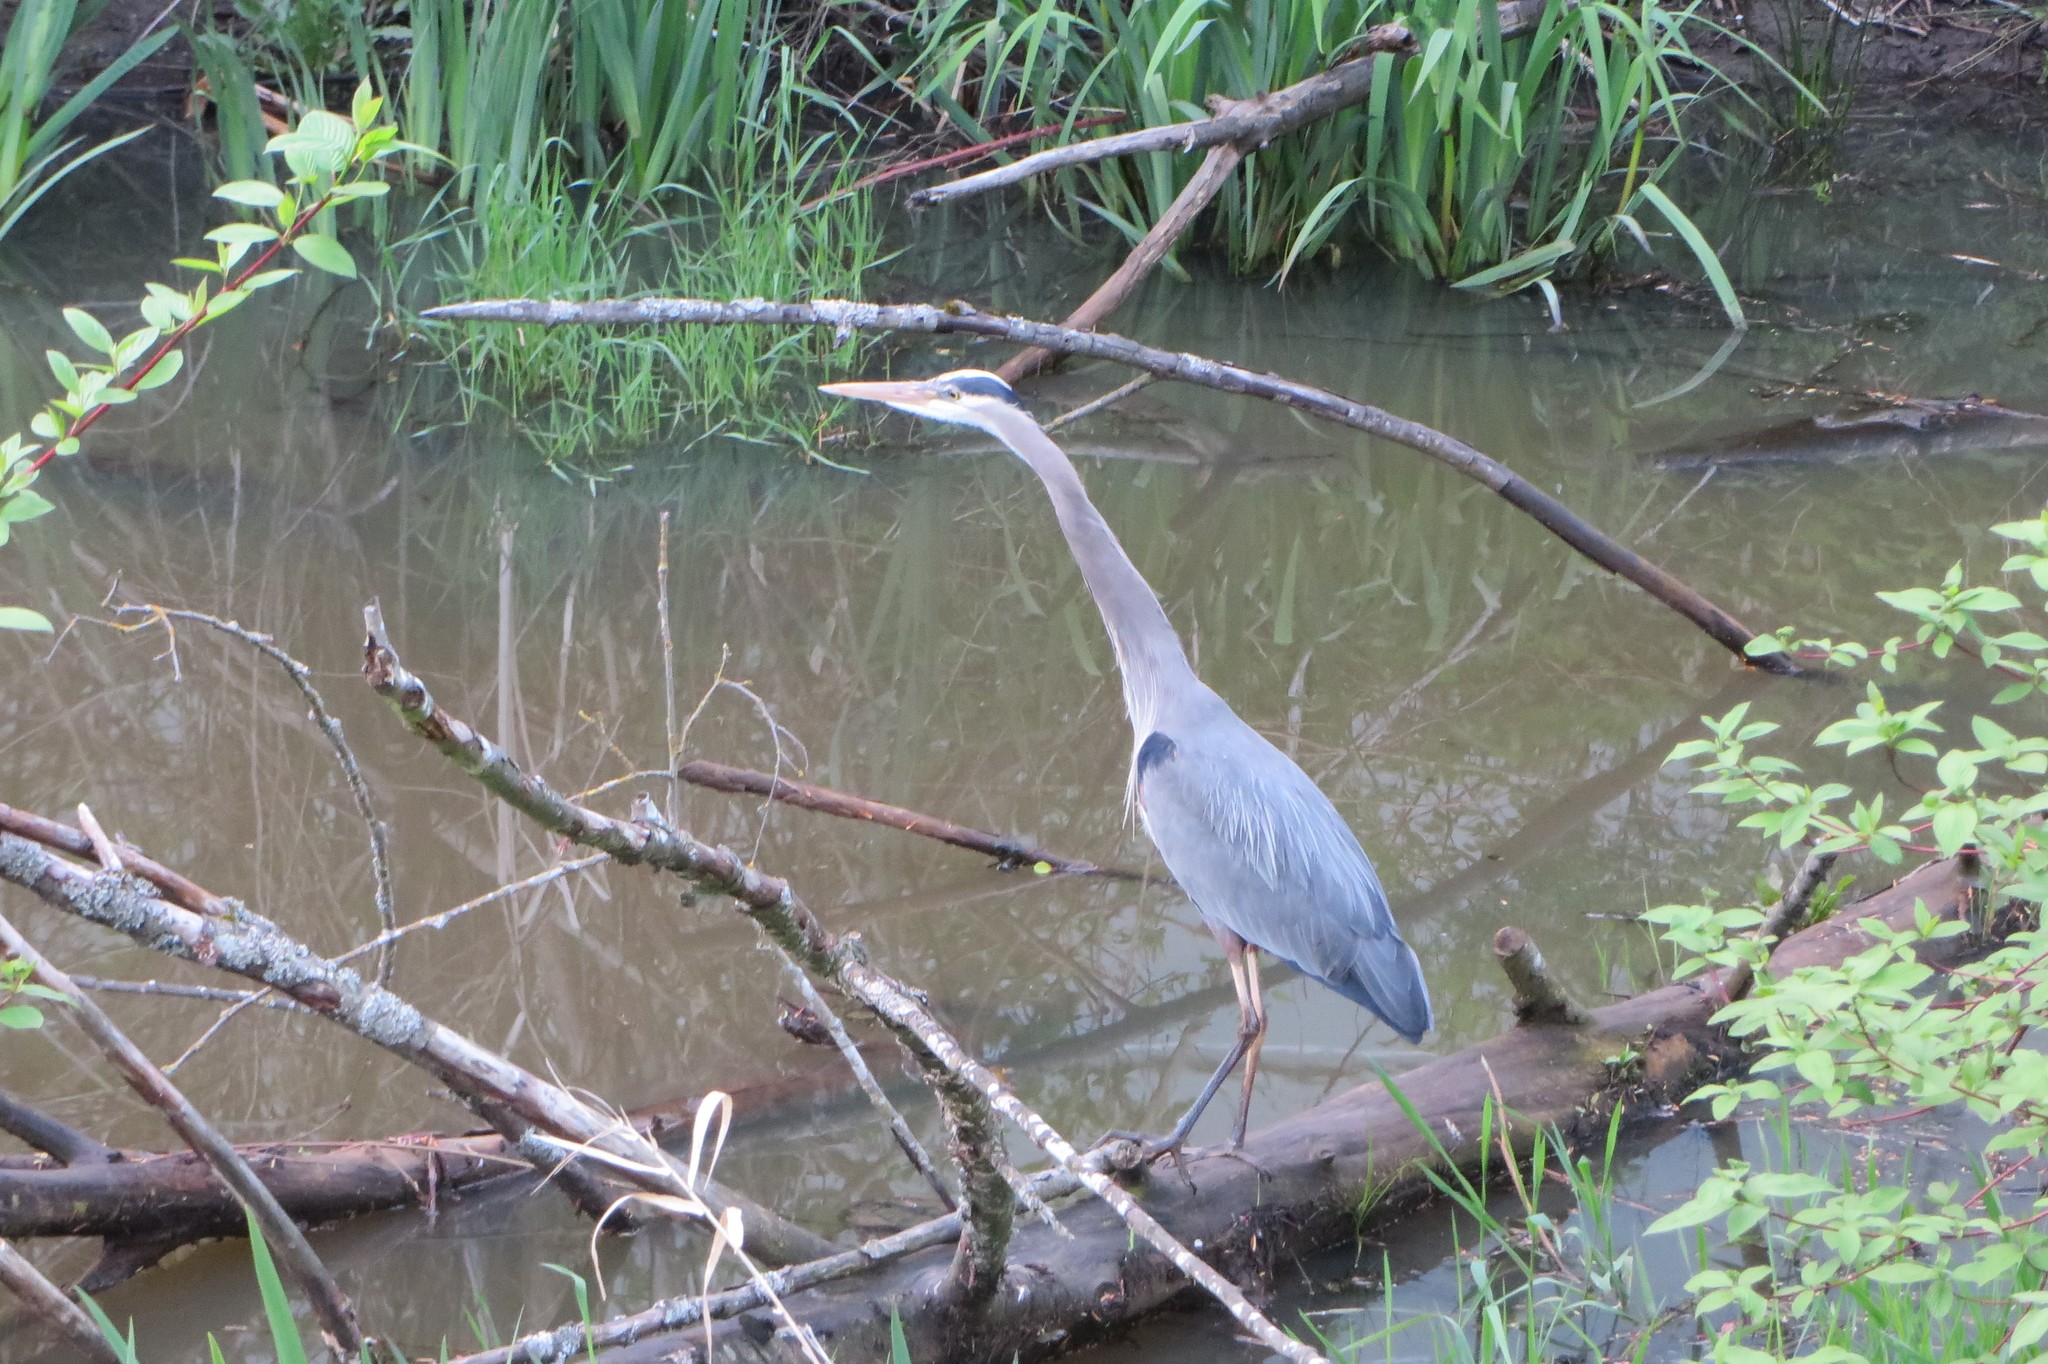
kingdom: Animalia
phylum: Chordata
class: Aves
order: Pelecaniformes
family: Ardeidae
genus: Ardea
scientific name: Ardea herodias
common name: Great blue heron
